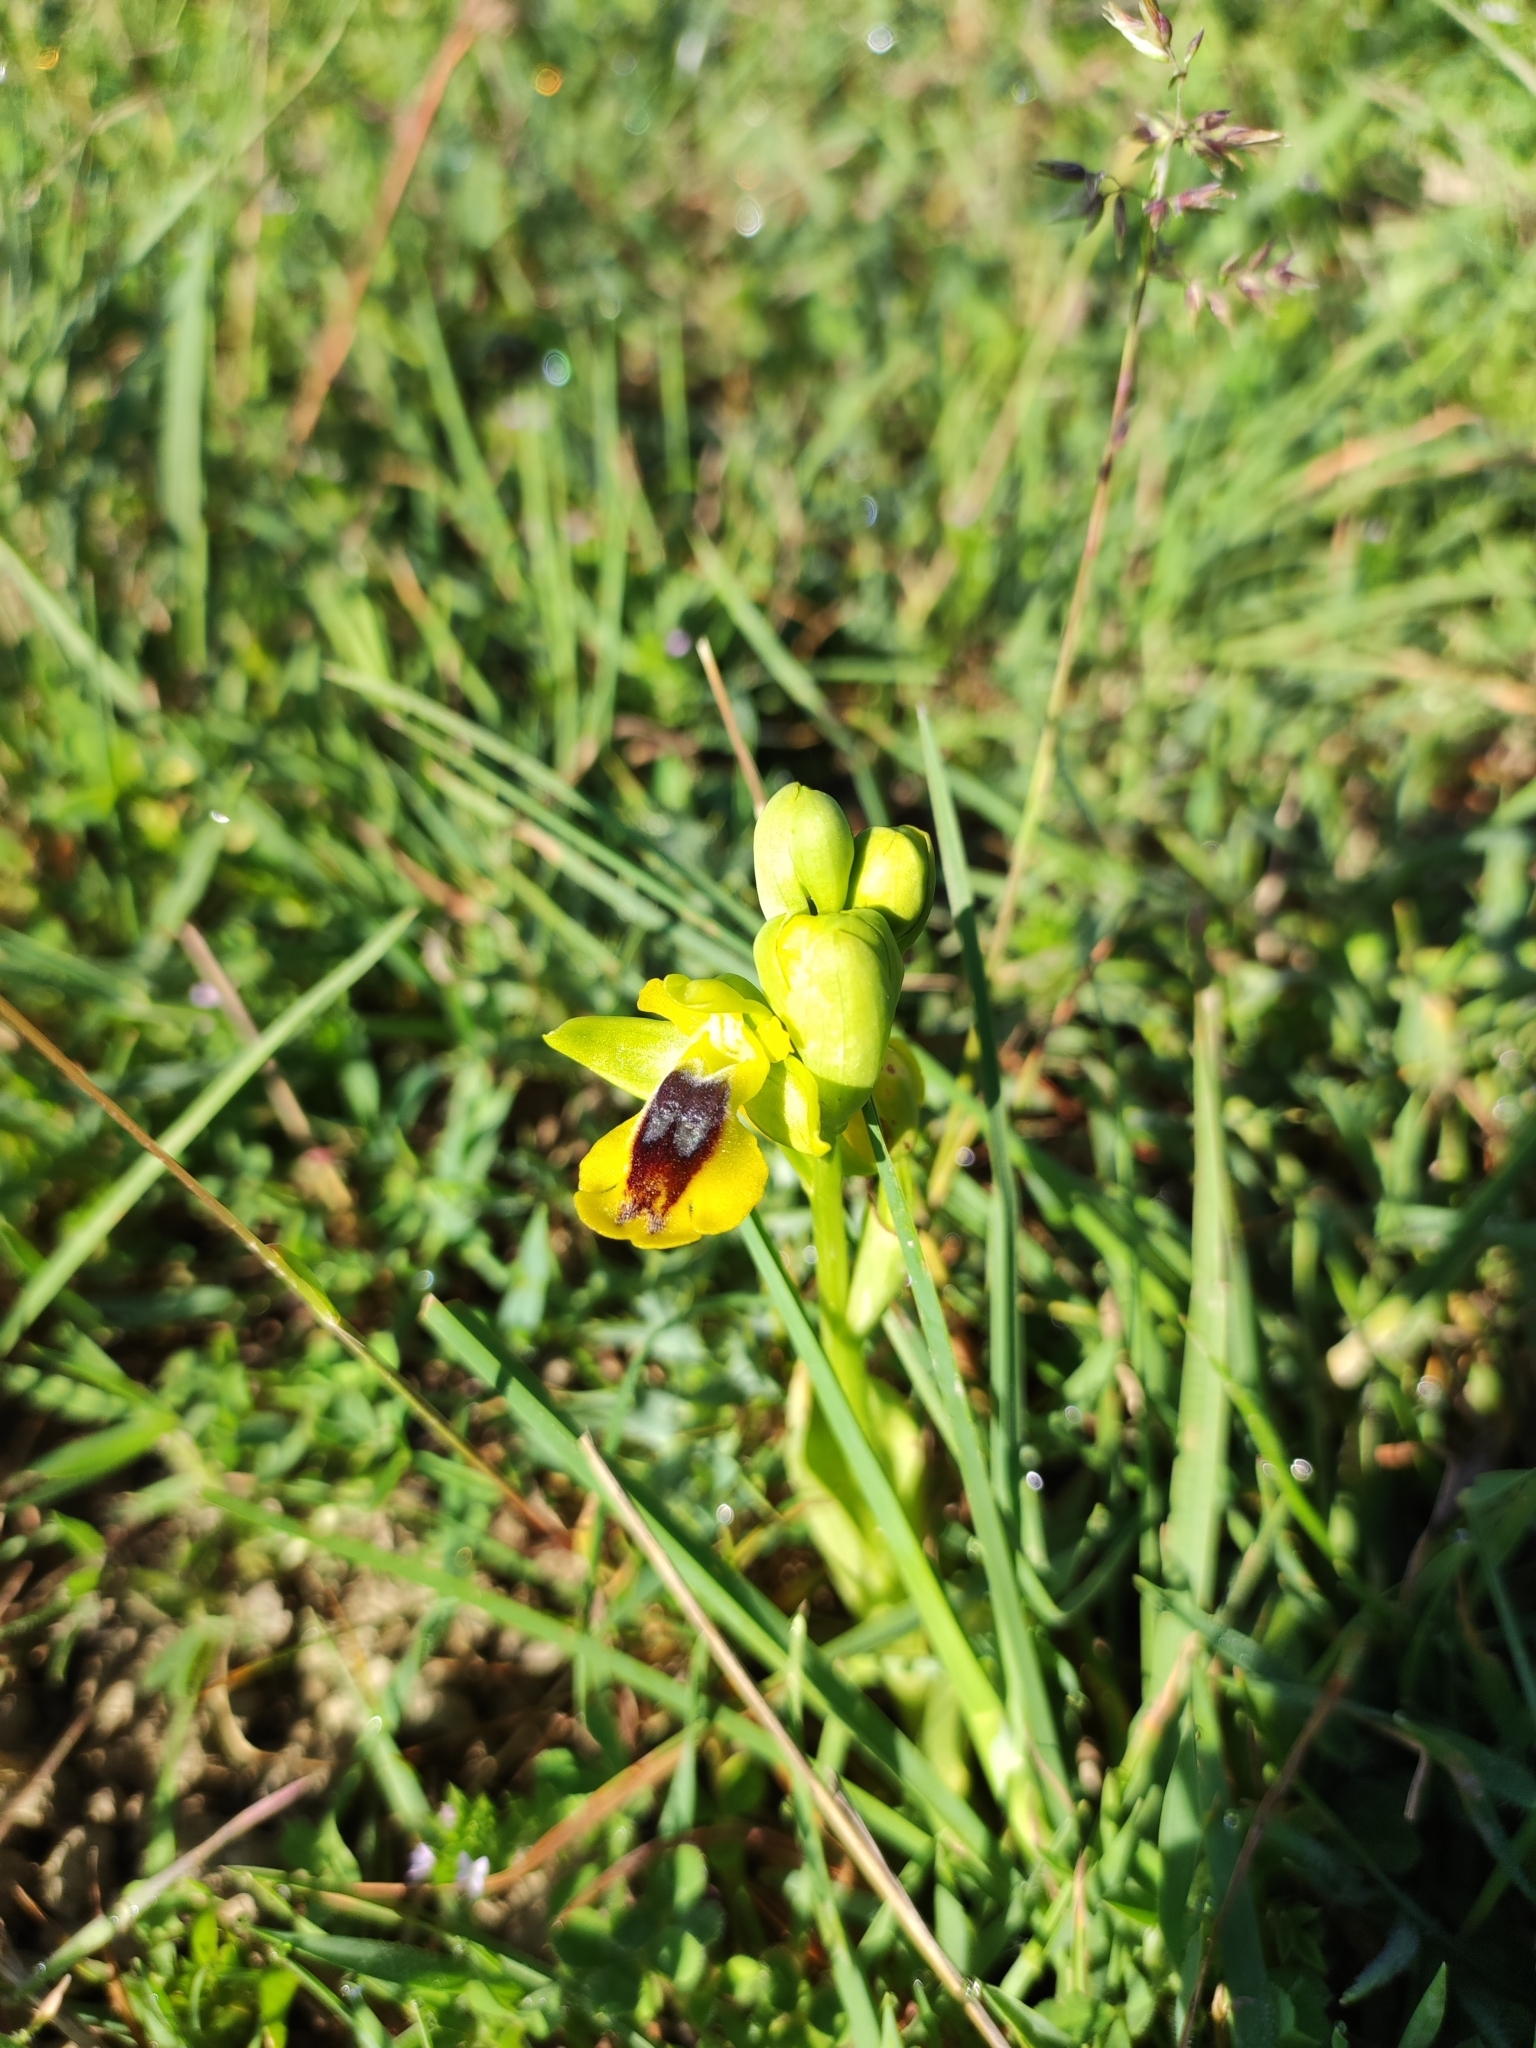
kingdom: Plantae
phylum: Tracheophyta
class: Liliopsida
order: Asparagales
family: Orchidaceae
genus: Ophrys
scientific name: Ophrys lutea
